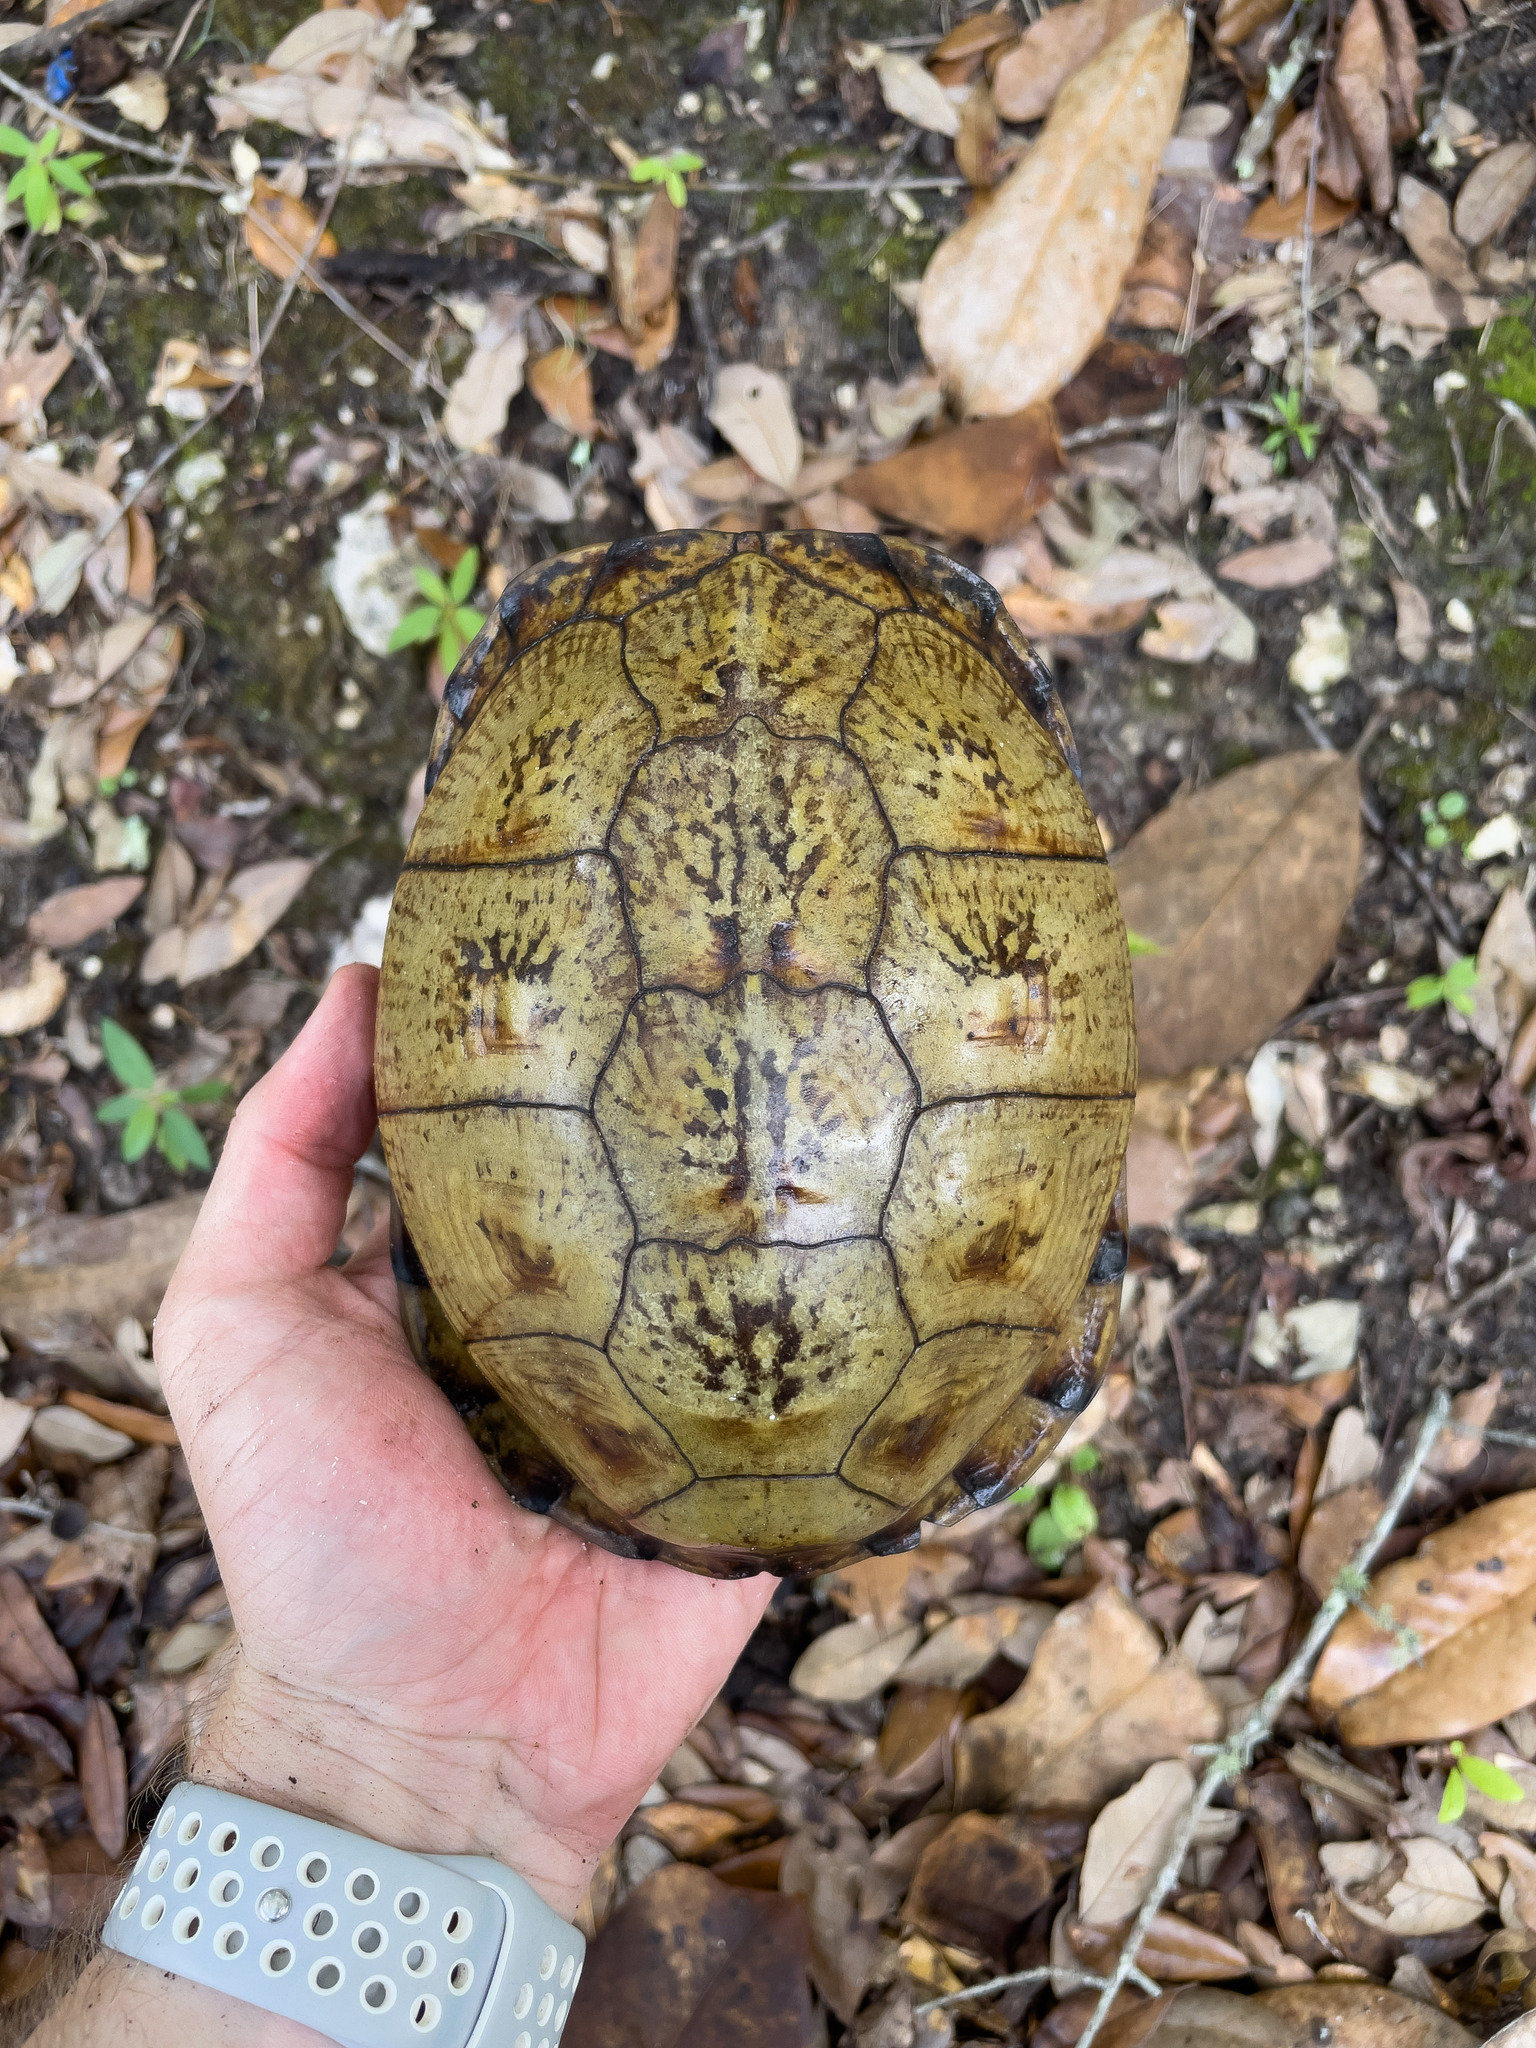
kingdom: Animalia
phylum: Chordata
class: Testudines
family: Emydidae
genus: Terrapene
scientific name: Terrapene carolina
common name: Common box turtle
